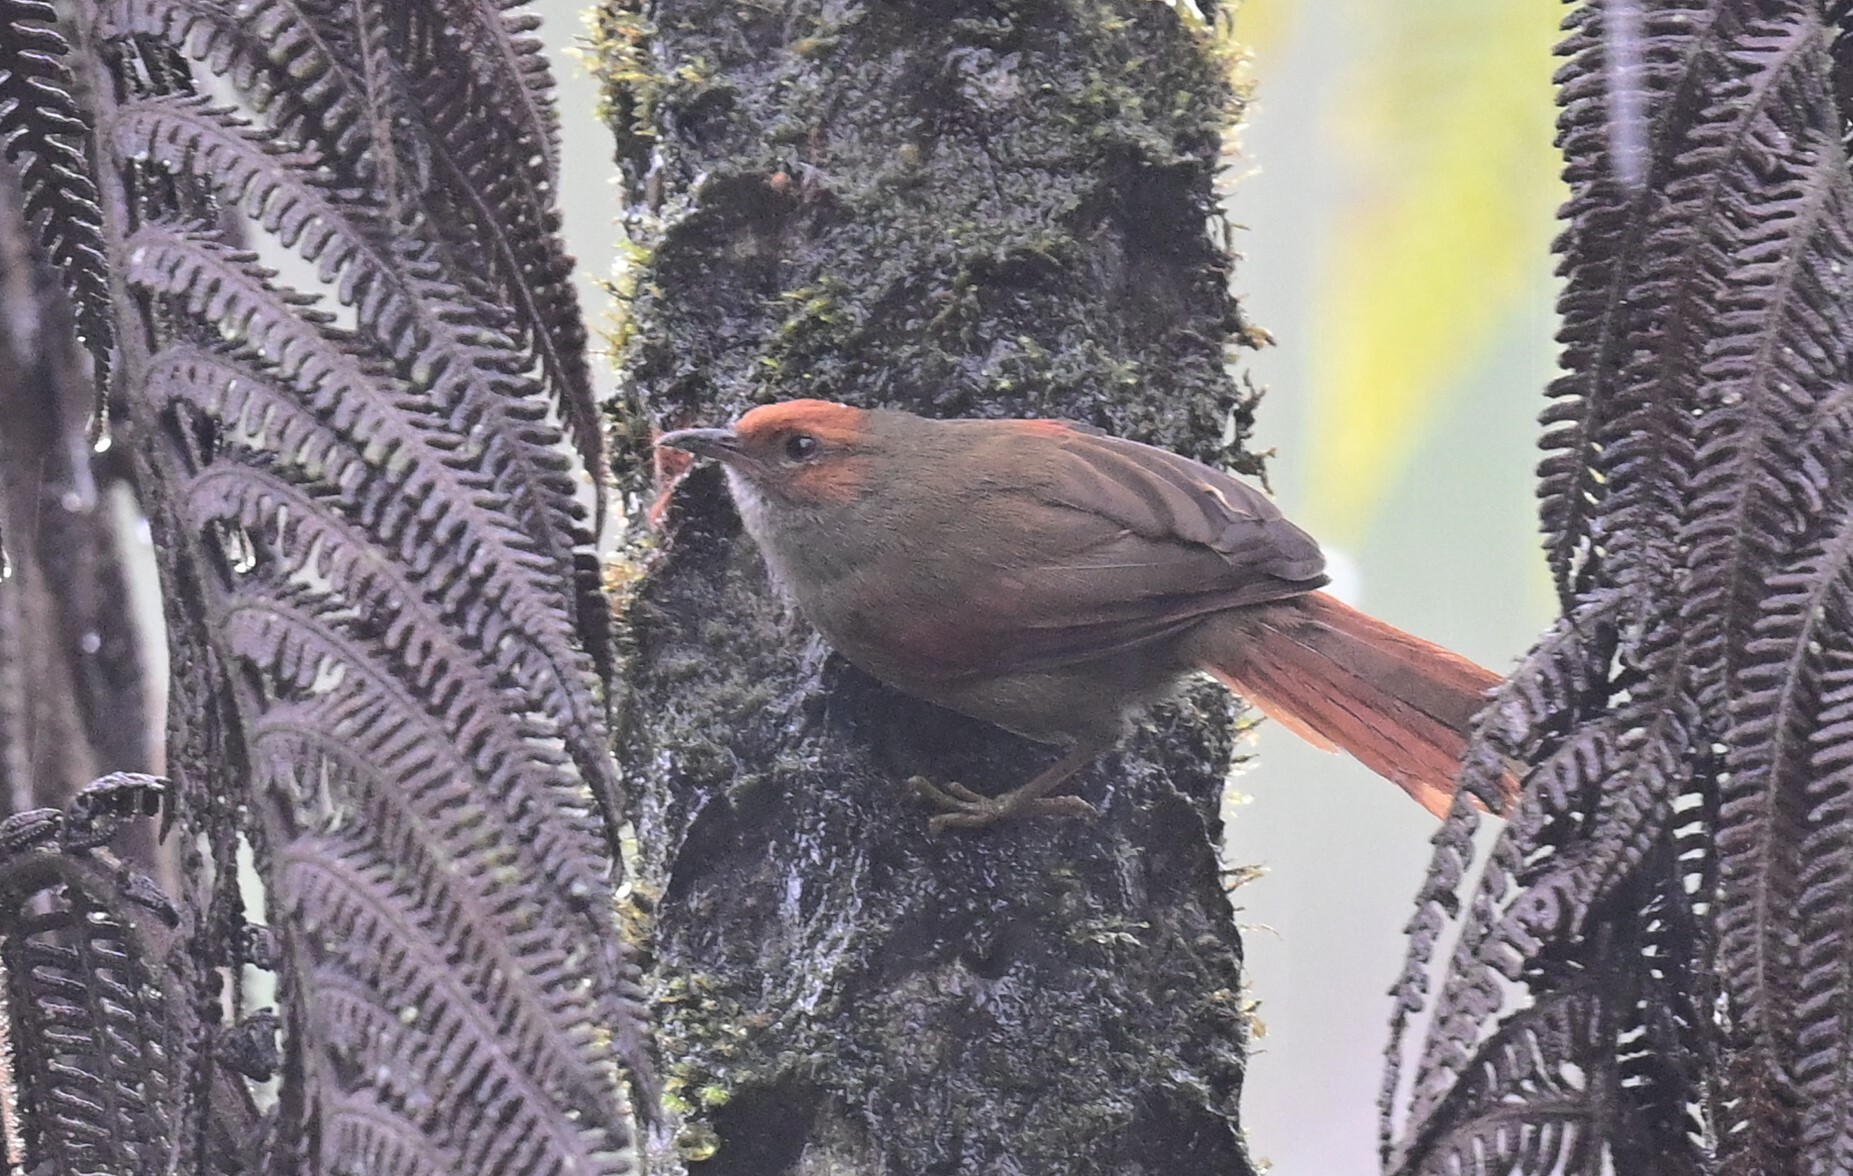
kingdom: Animalia
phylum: Chordata
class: Aves
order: Passeriformes
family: Furnariidae
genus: Cranioleuca
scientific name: Cranioleuca erythrops
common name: Red-faced spinetail
